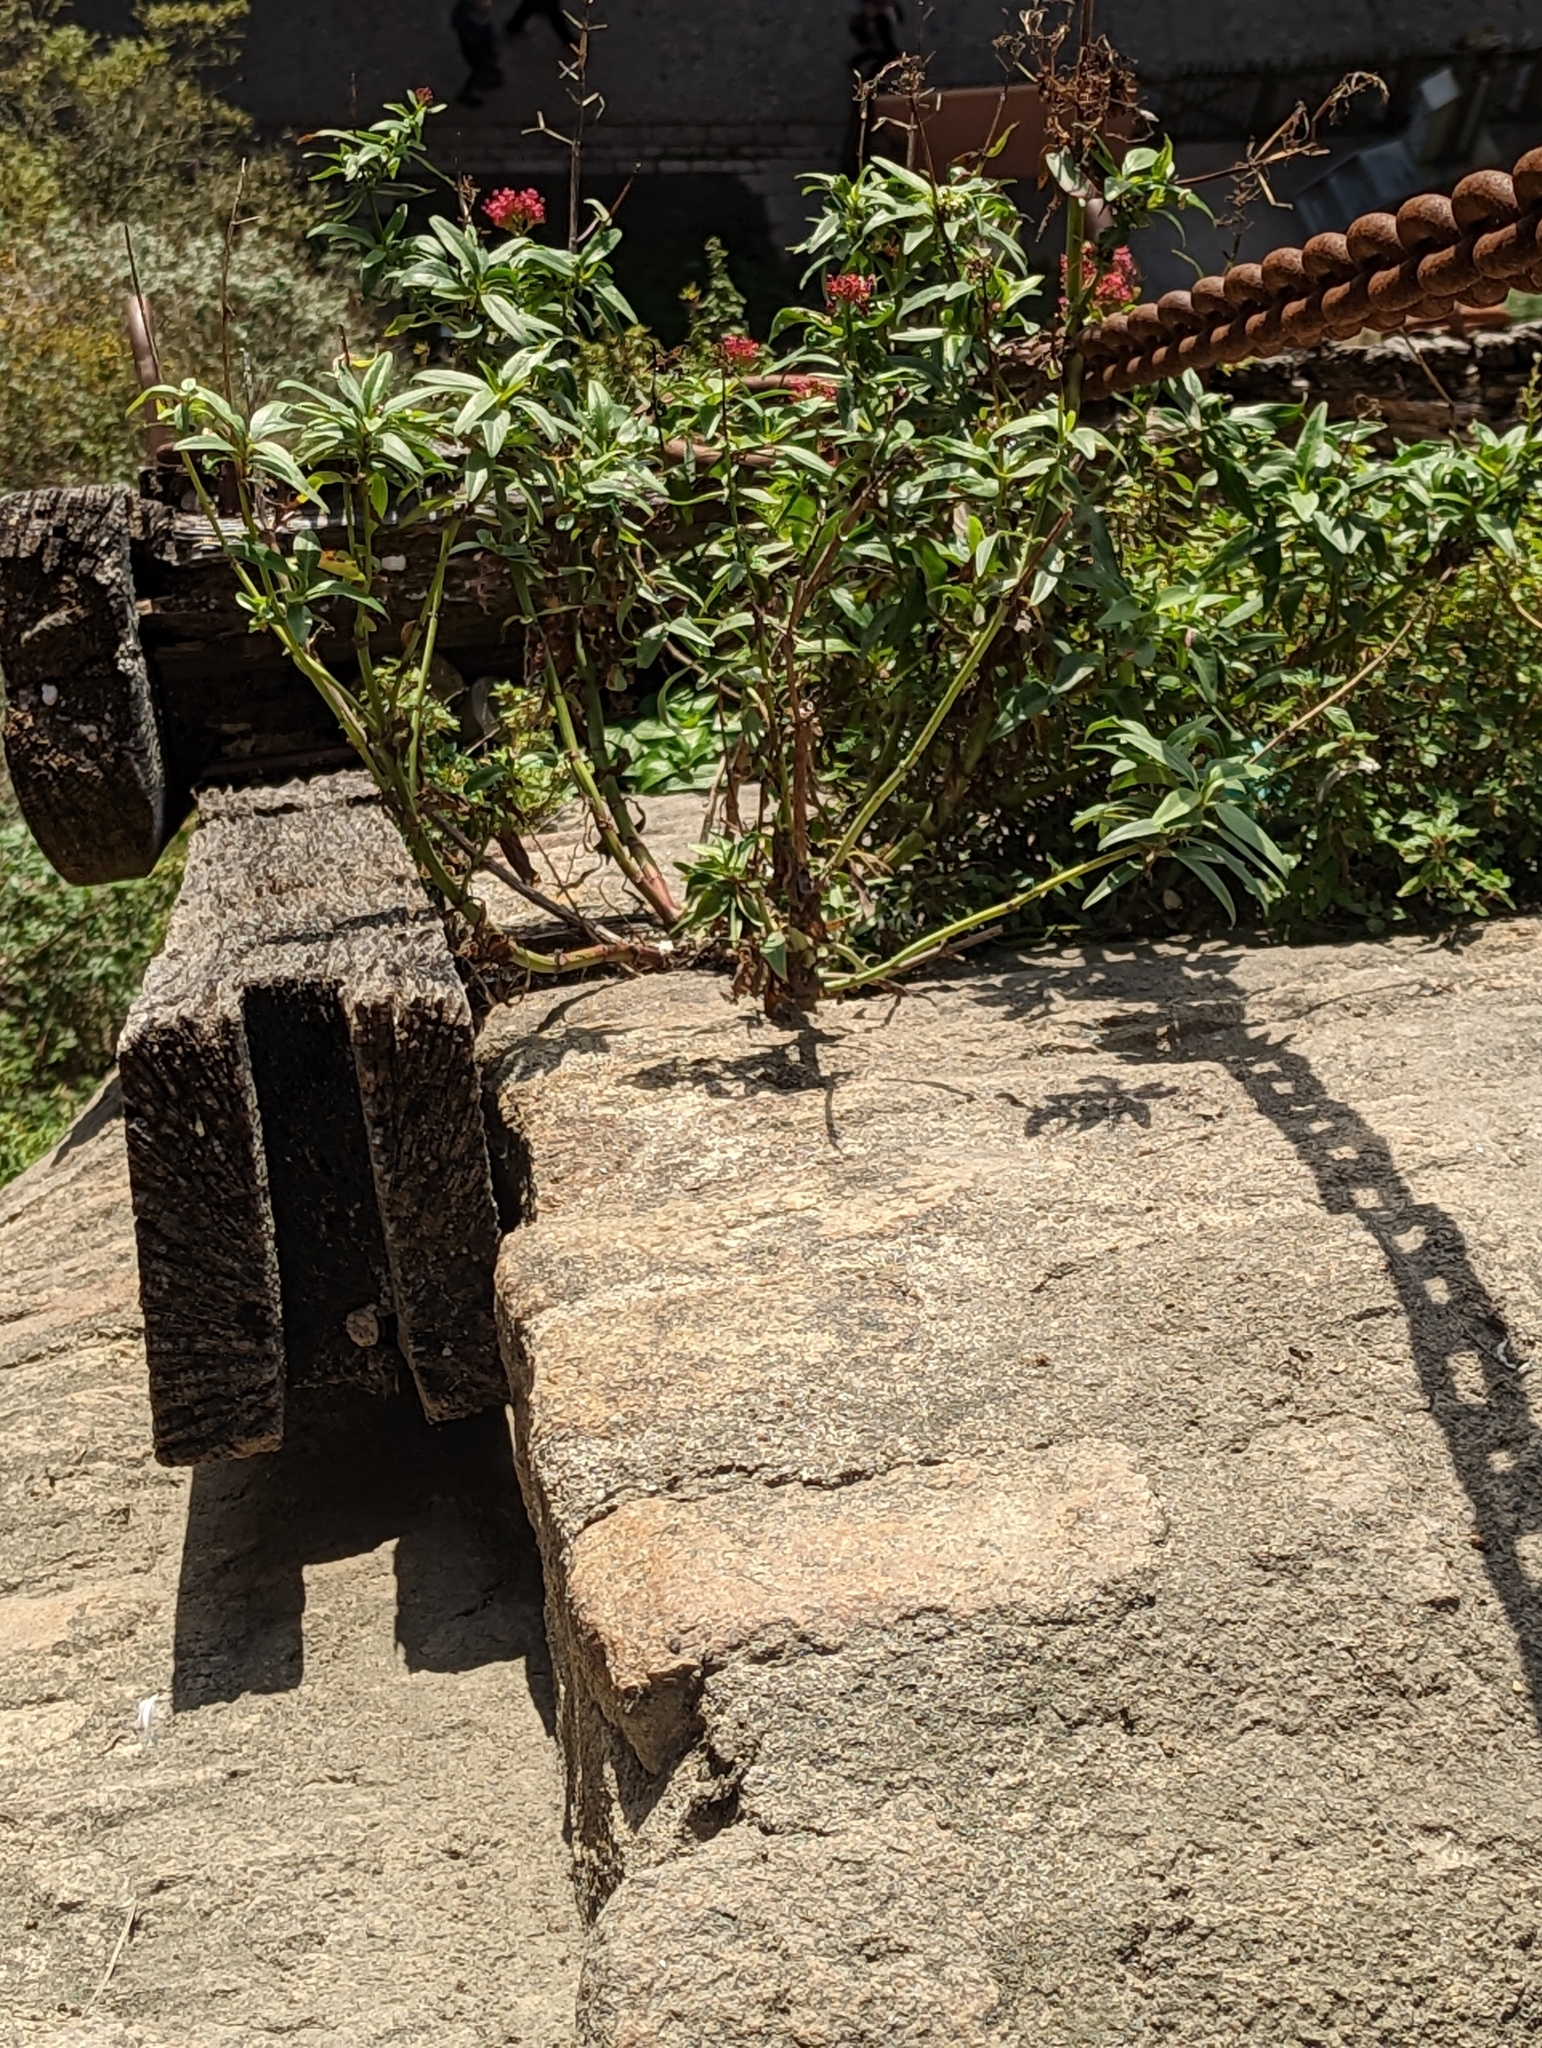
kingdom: Plantae
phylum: Tracheophyta
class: Magnoliopsida
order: Dipsacales
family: Caprifoliaceae
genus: Centranthus
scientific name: Centranthus ruber
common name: Red valerian
